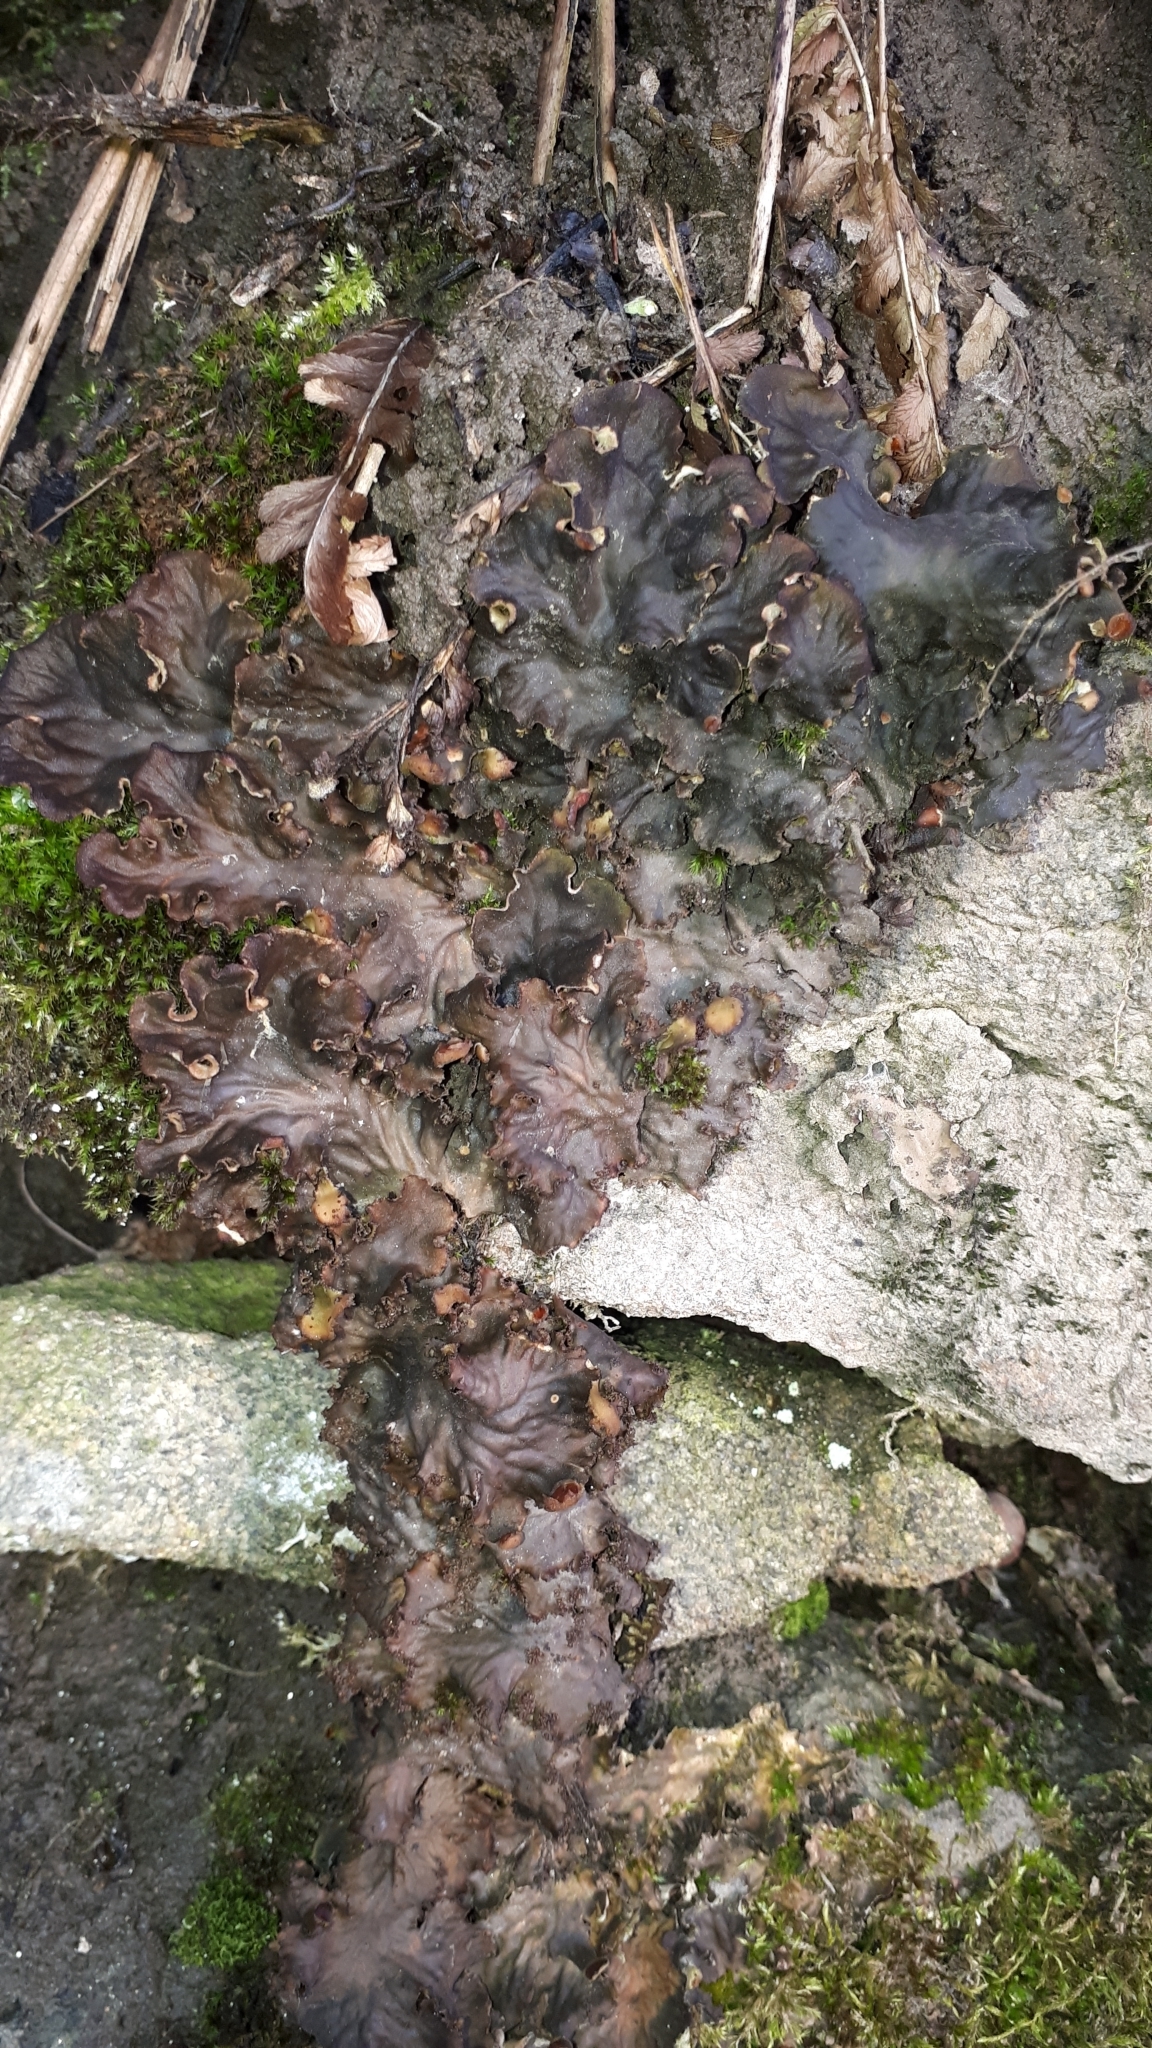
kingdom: Fungi
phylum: Ascomycota
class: Lecanoromycetes
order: Peltigerales
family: Peltigeraceae
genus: Peltigera
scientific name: Peltigera praetextata
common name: Scaly dog-lichen
